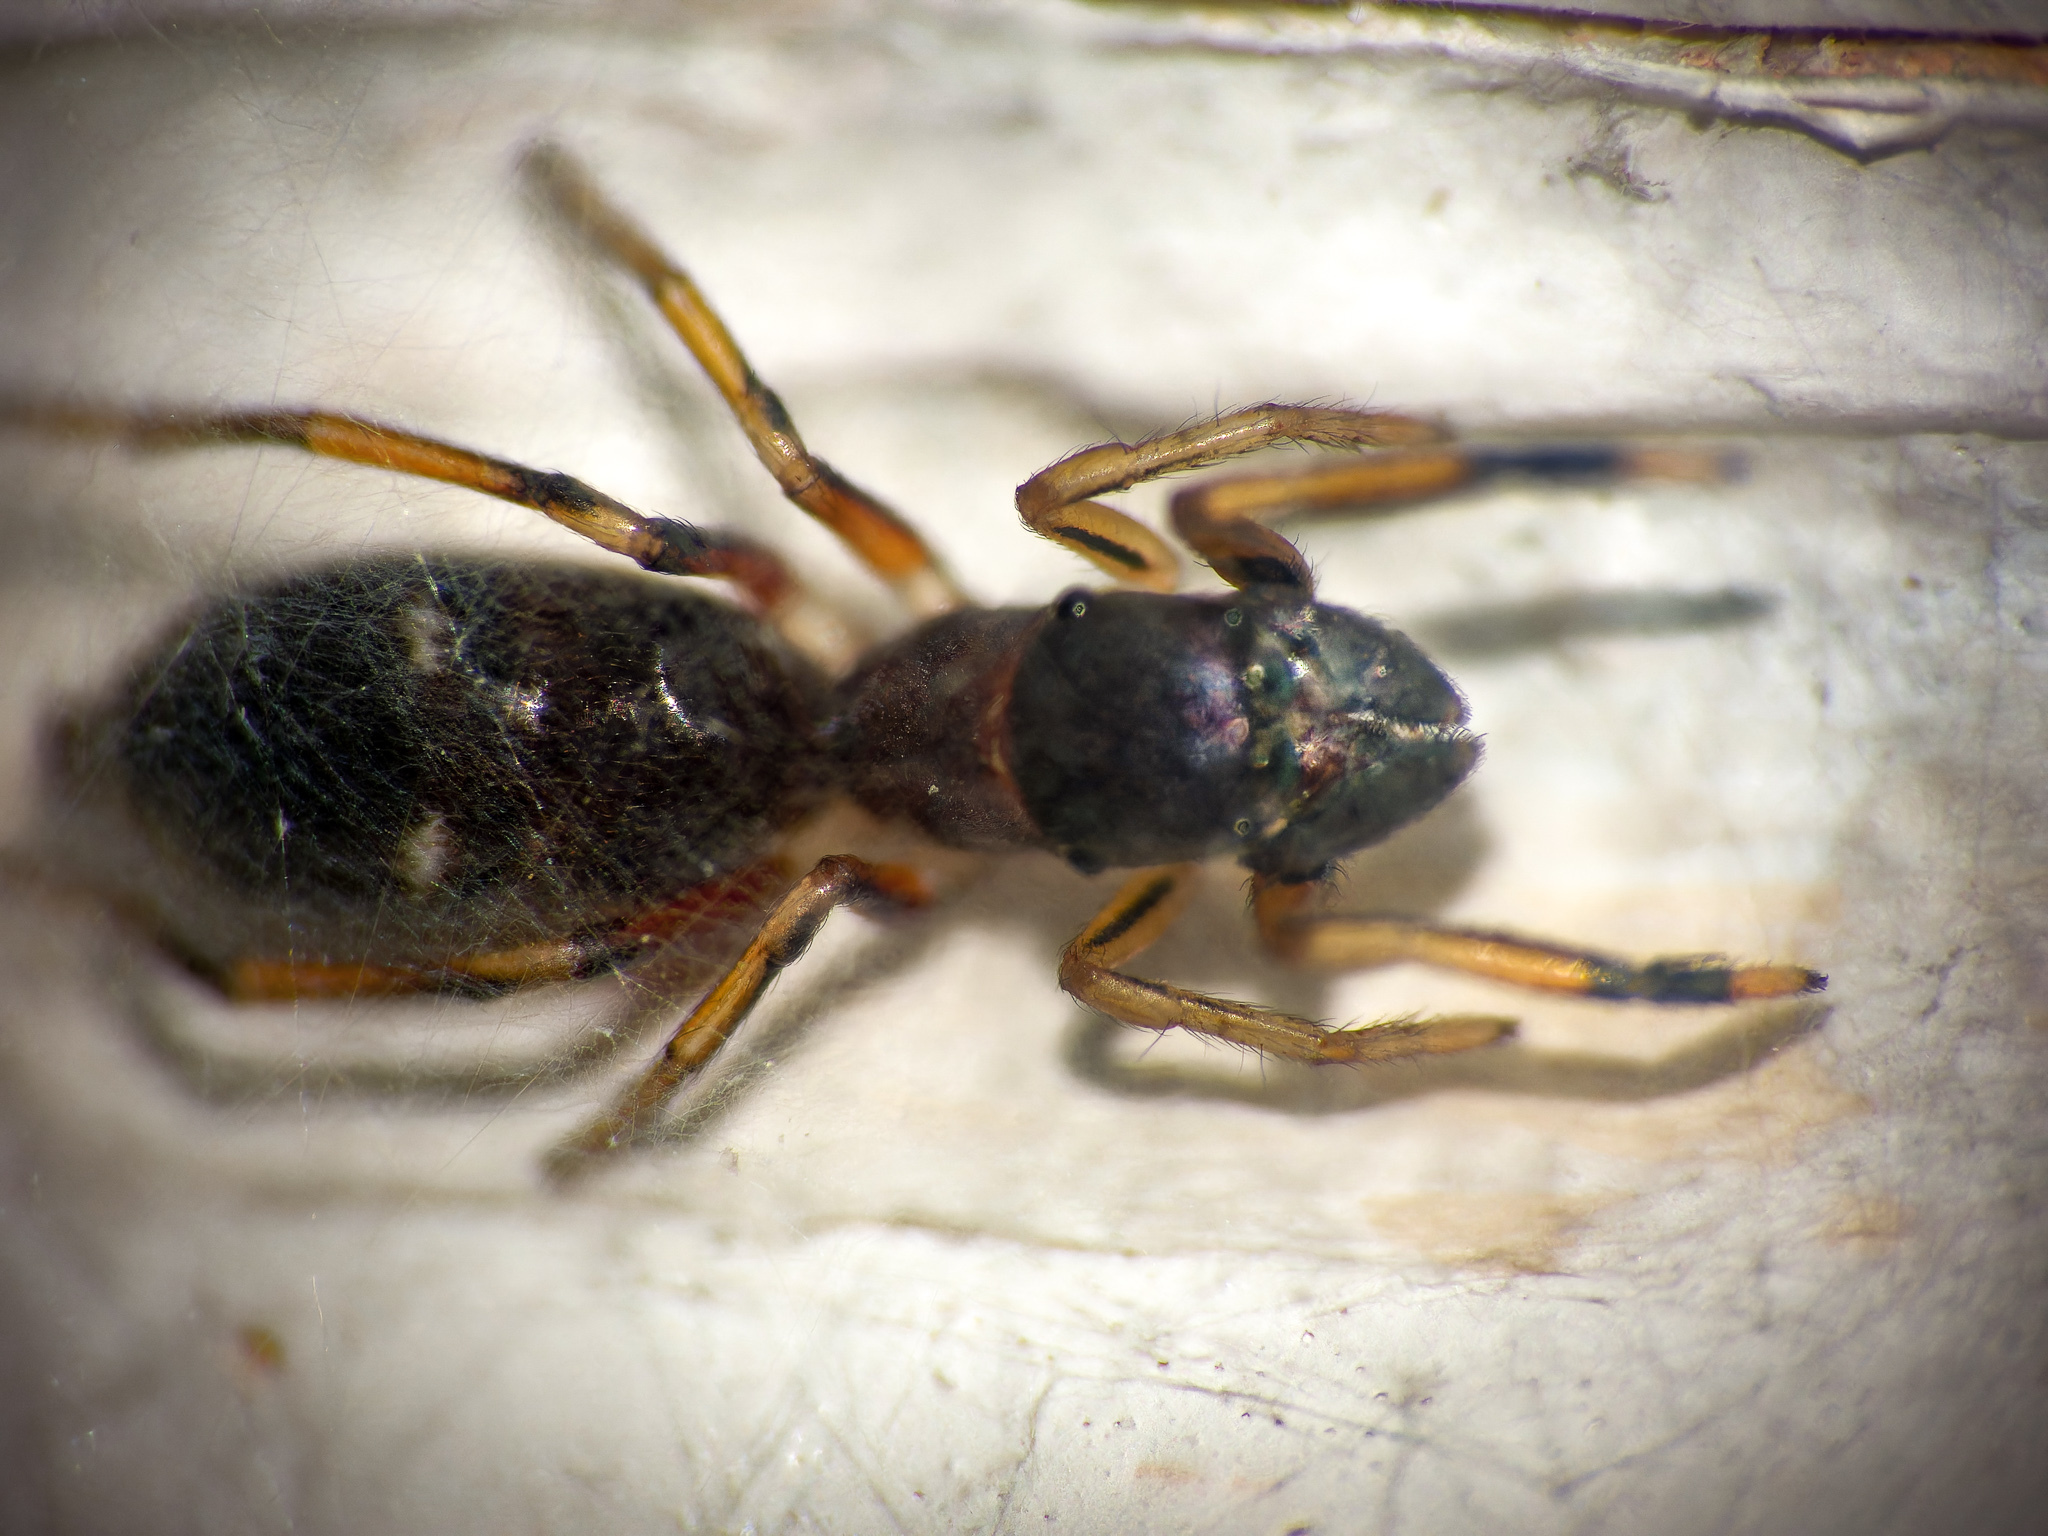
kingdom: Animalia
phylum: Arthropoda
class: Arachnida
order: Araneae
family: Salticidae
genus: Myrmarachne
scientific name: Myrmarachne formicaria
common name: Ant mimic jumping spider
